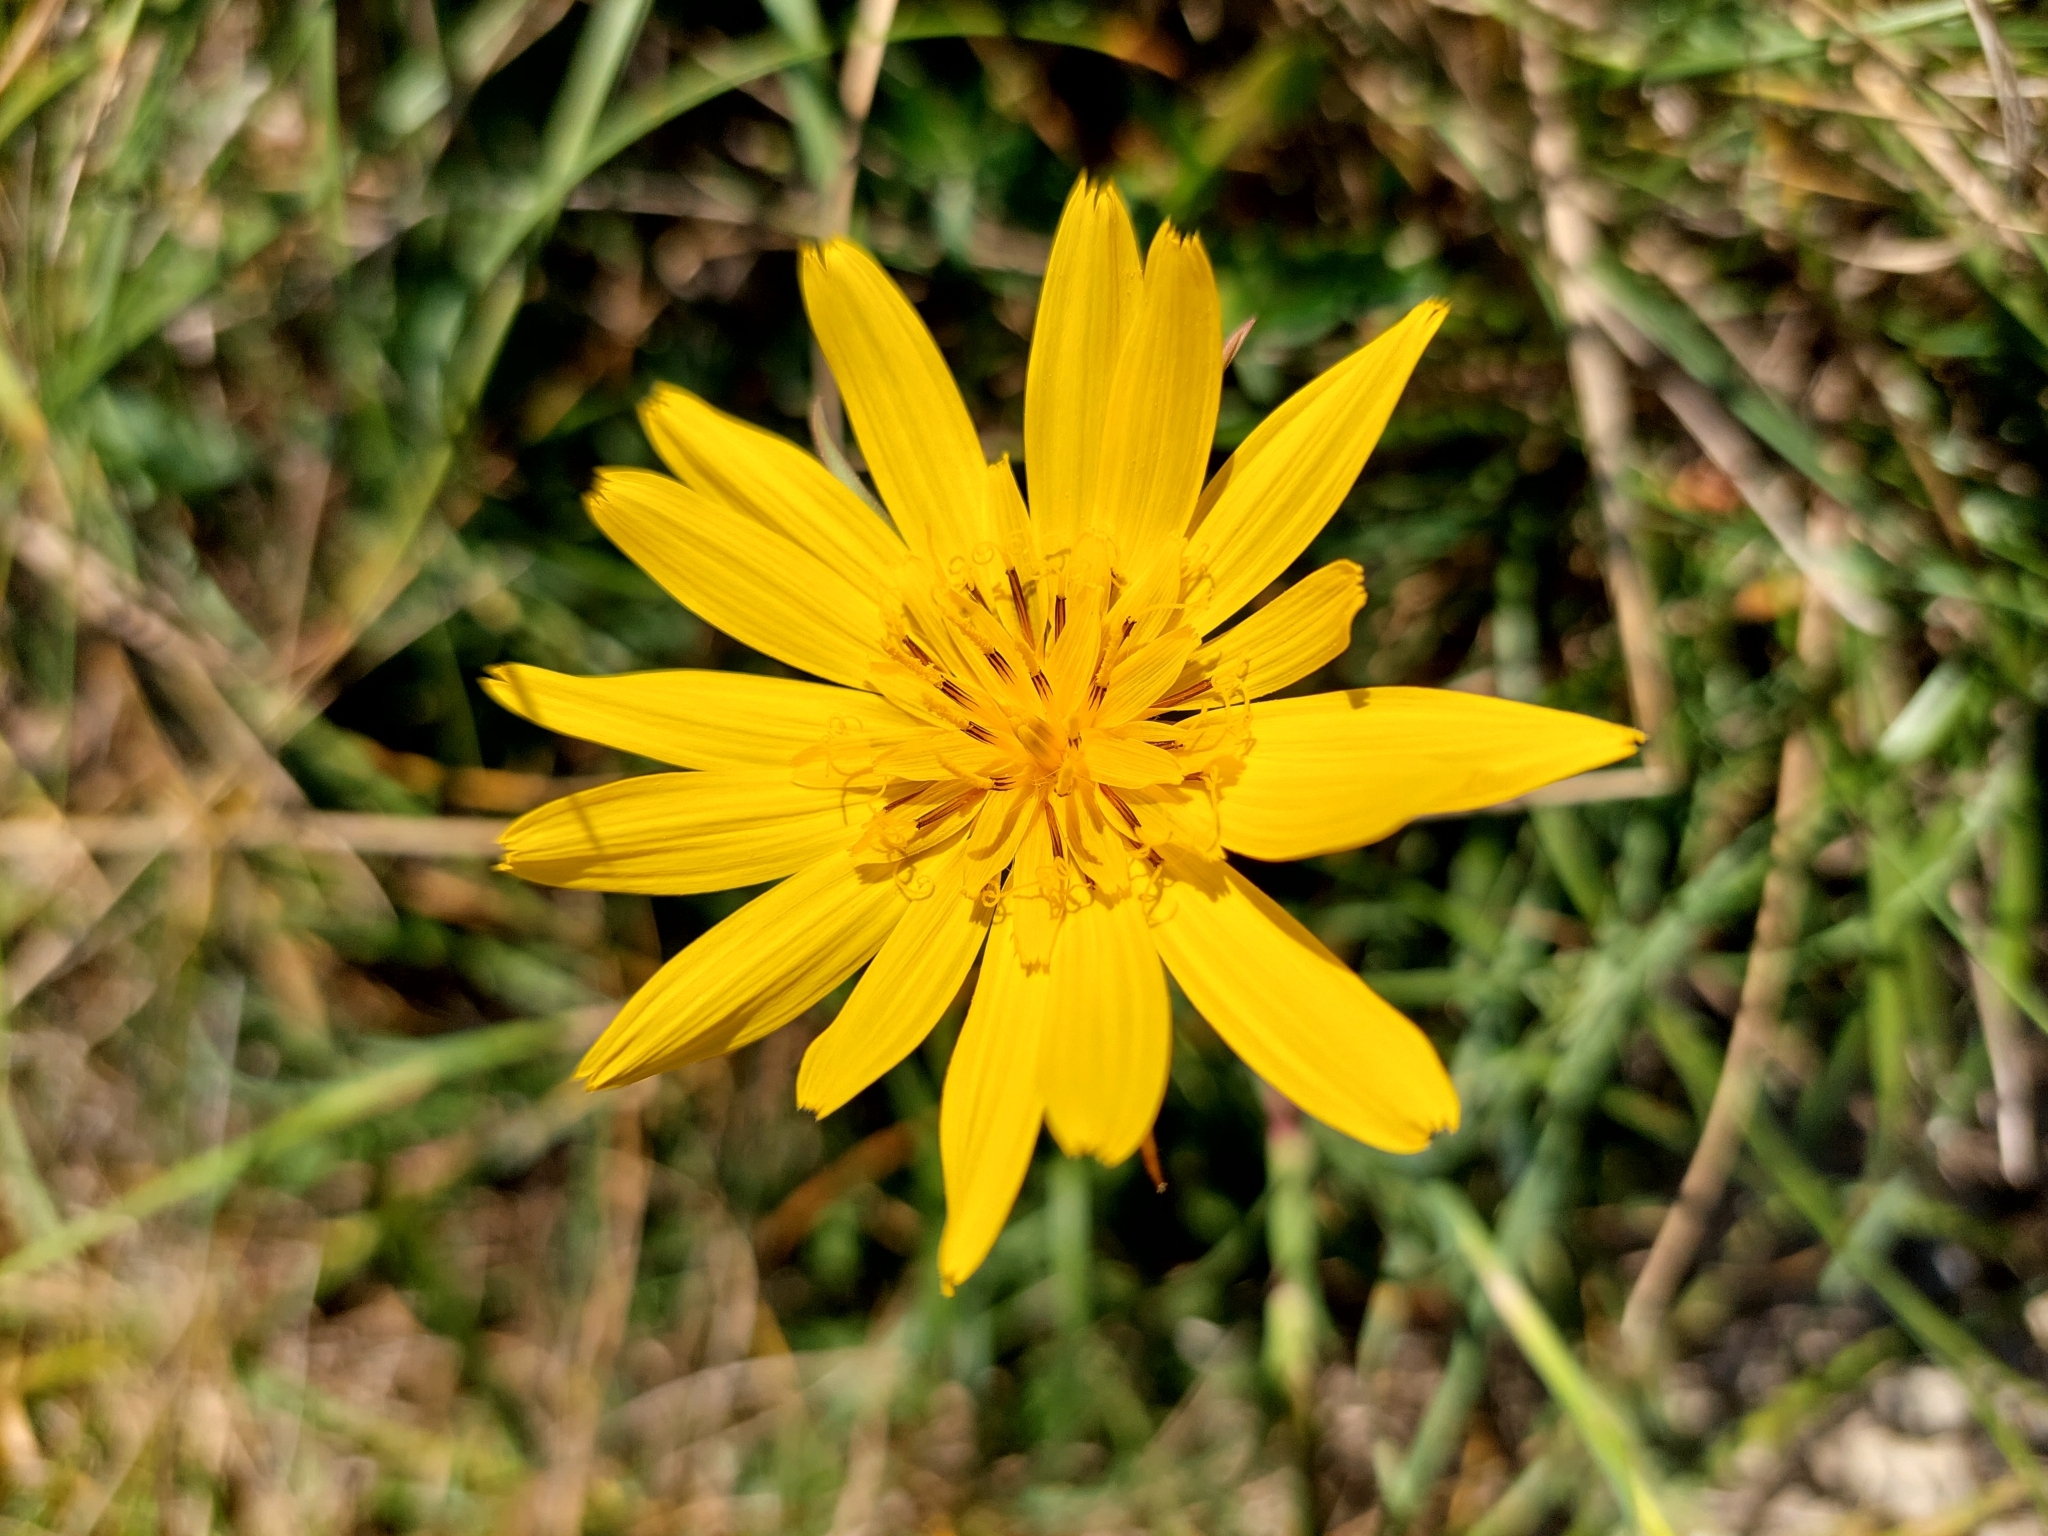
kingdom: Plantae
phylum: Tracheophyta
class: Magnoliopsida
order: Asterales
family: Asteraceae
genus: Tragopogon
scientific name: Tragopogon orientalis
